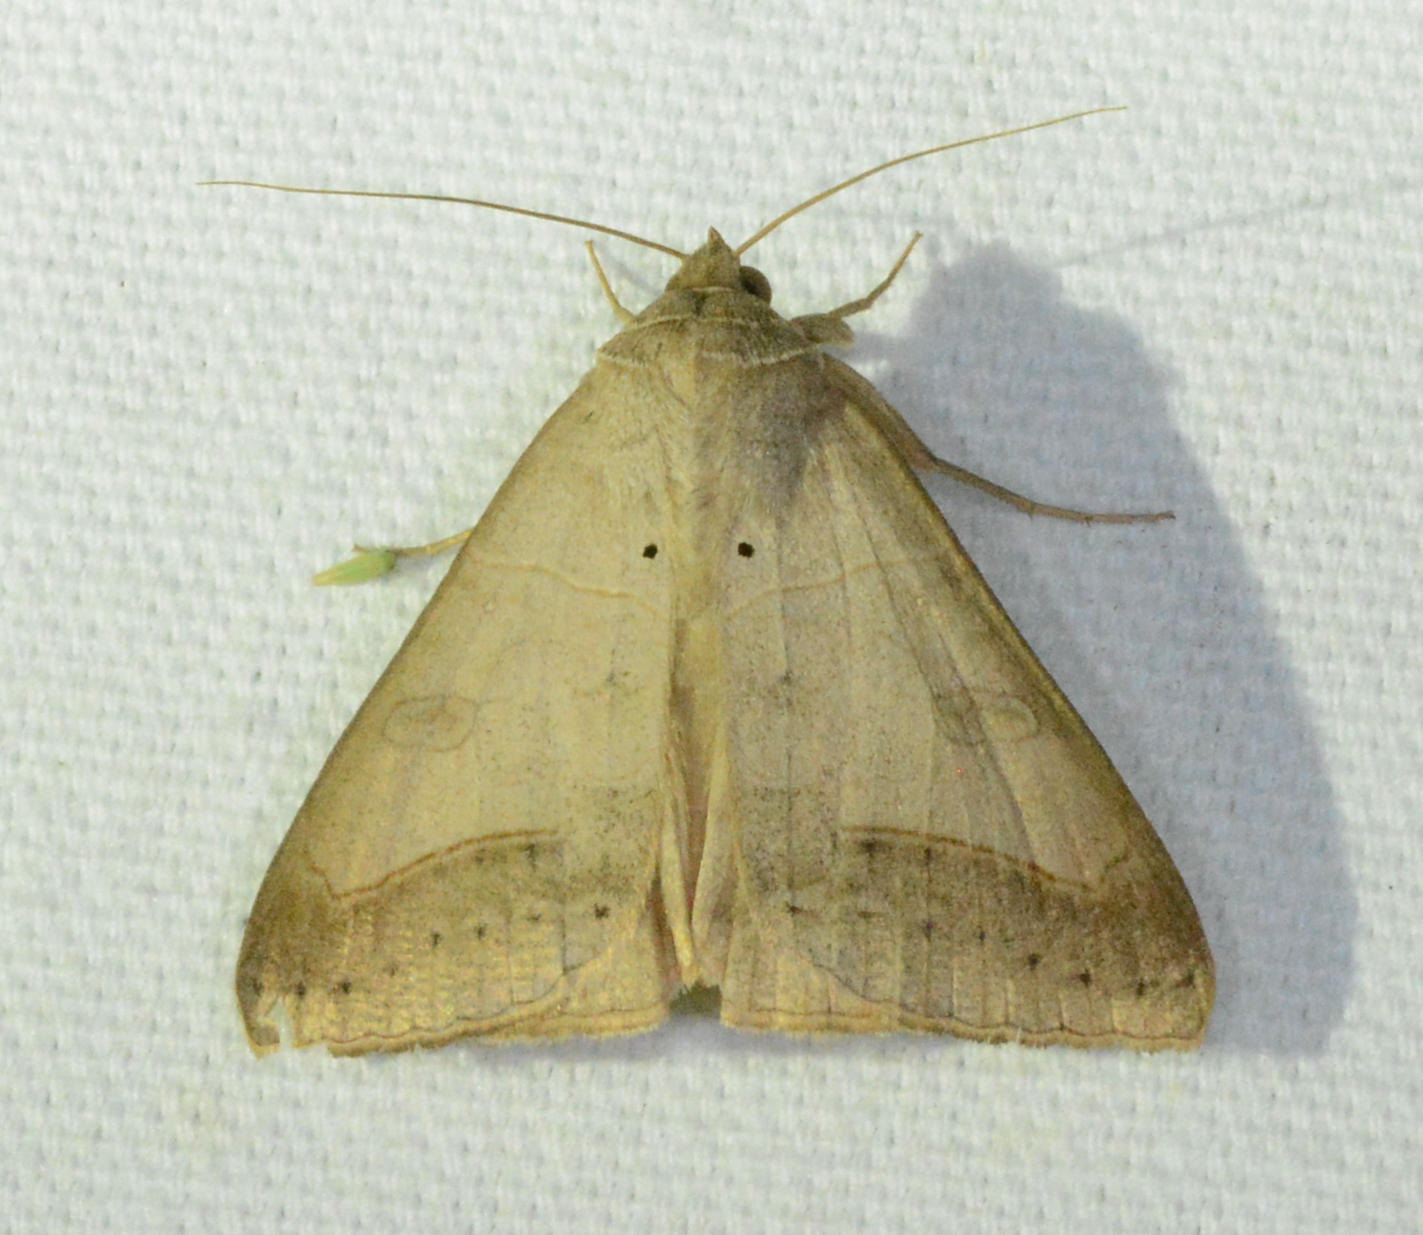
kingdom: Animalia
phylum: Arthropoda
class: Insecta
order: Lepidoptera
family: Erebidae
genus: Mocis
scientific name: Mocis marcida
